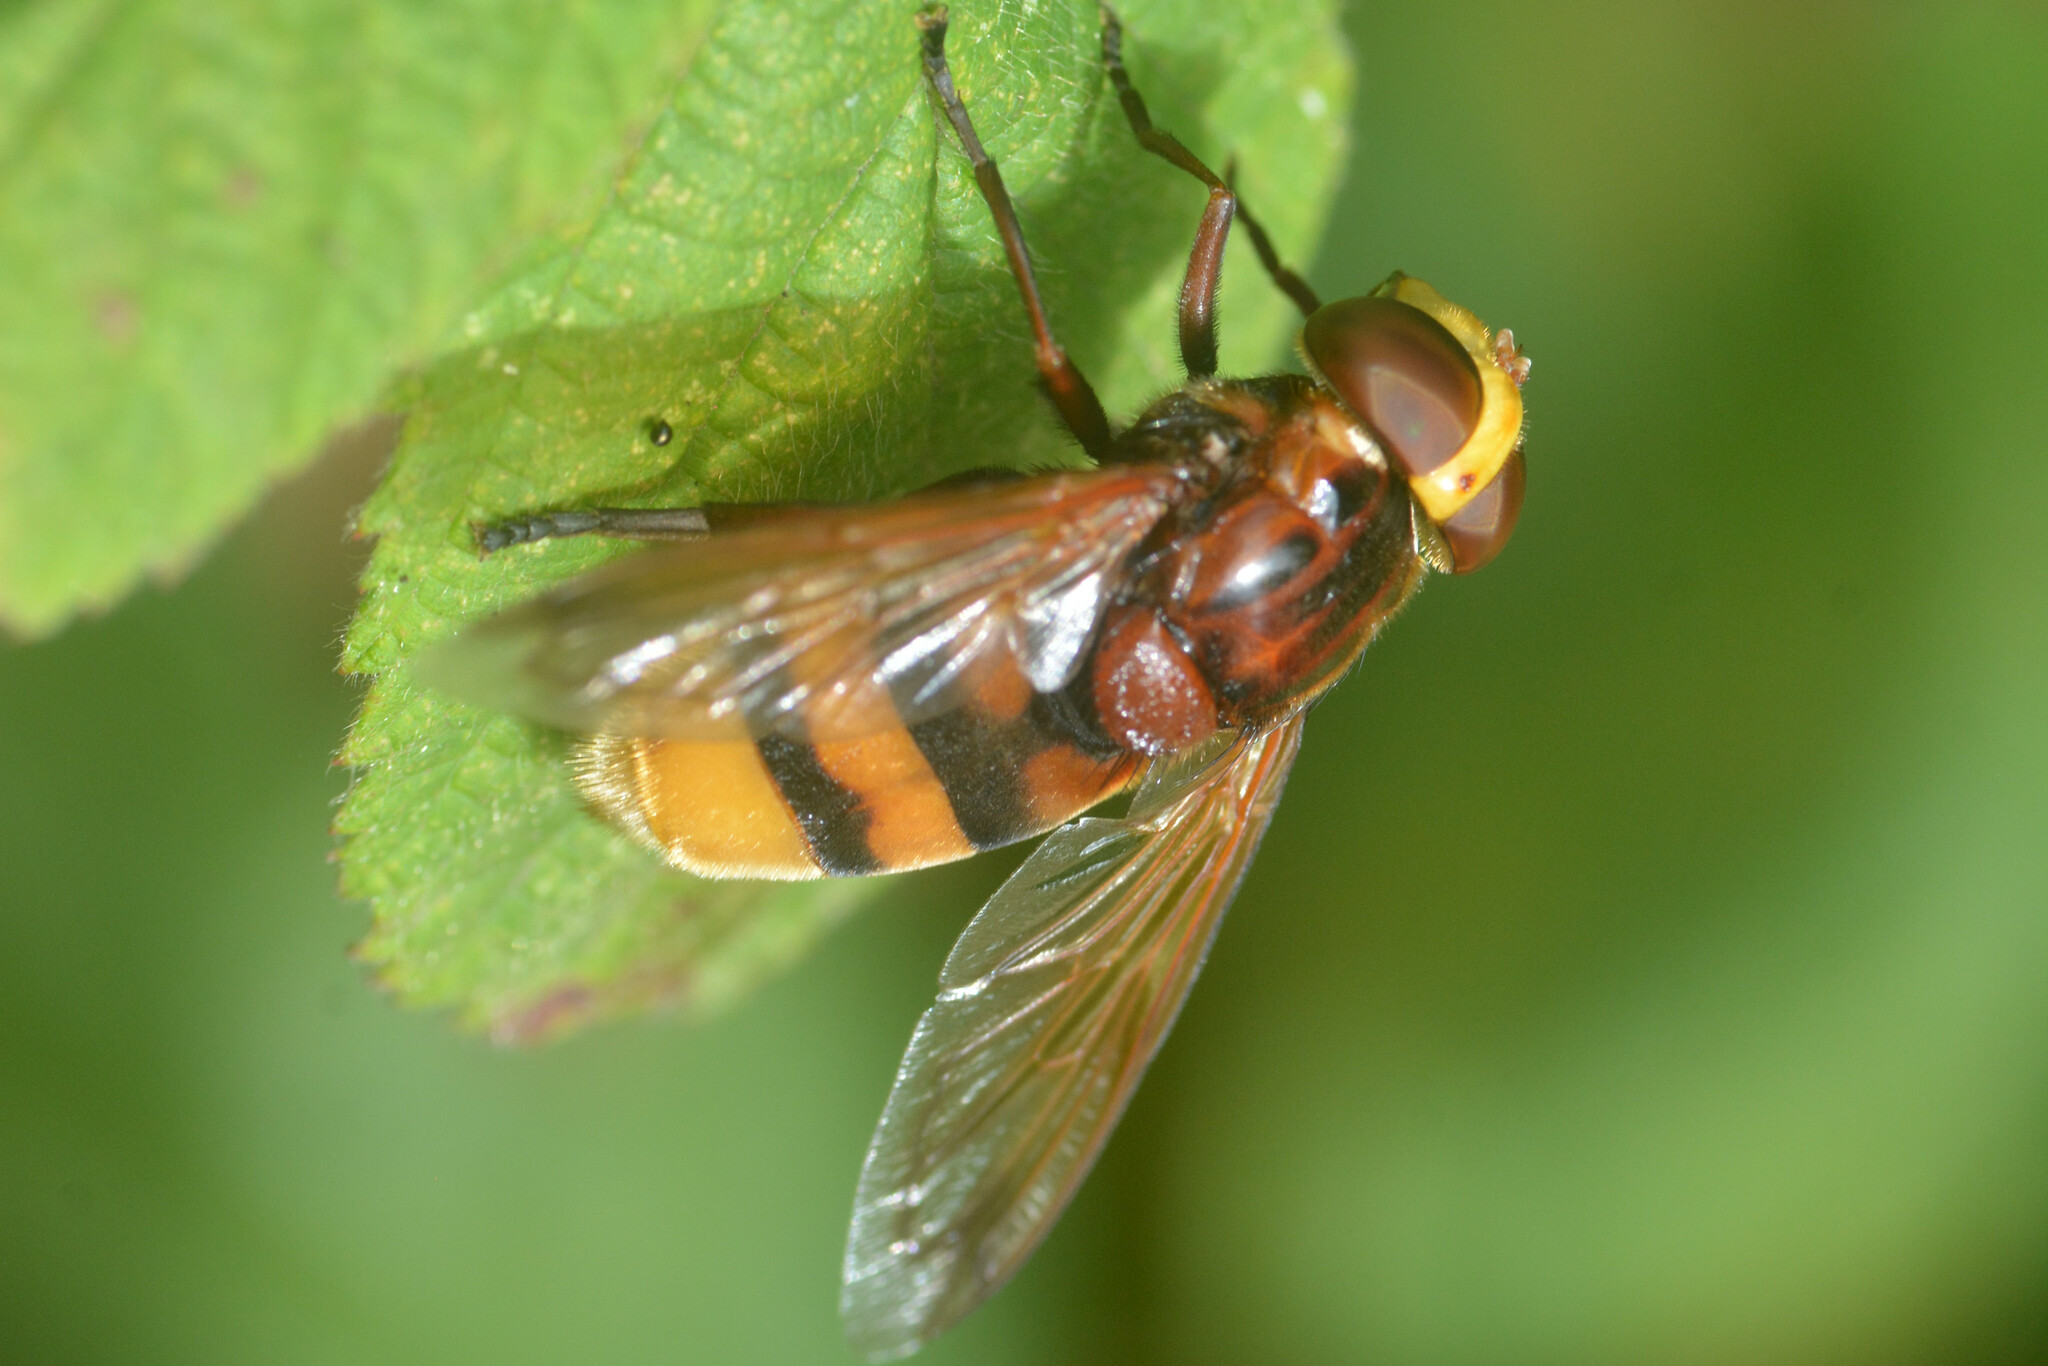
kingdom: Animalia
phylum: Arthropoda
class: Insecta
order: Diptera
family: Syrphidae
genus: Volucella
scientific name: Volucella zonaria
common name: Hornet hoverfly
